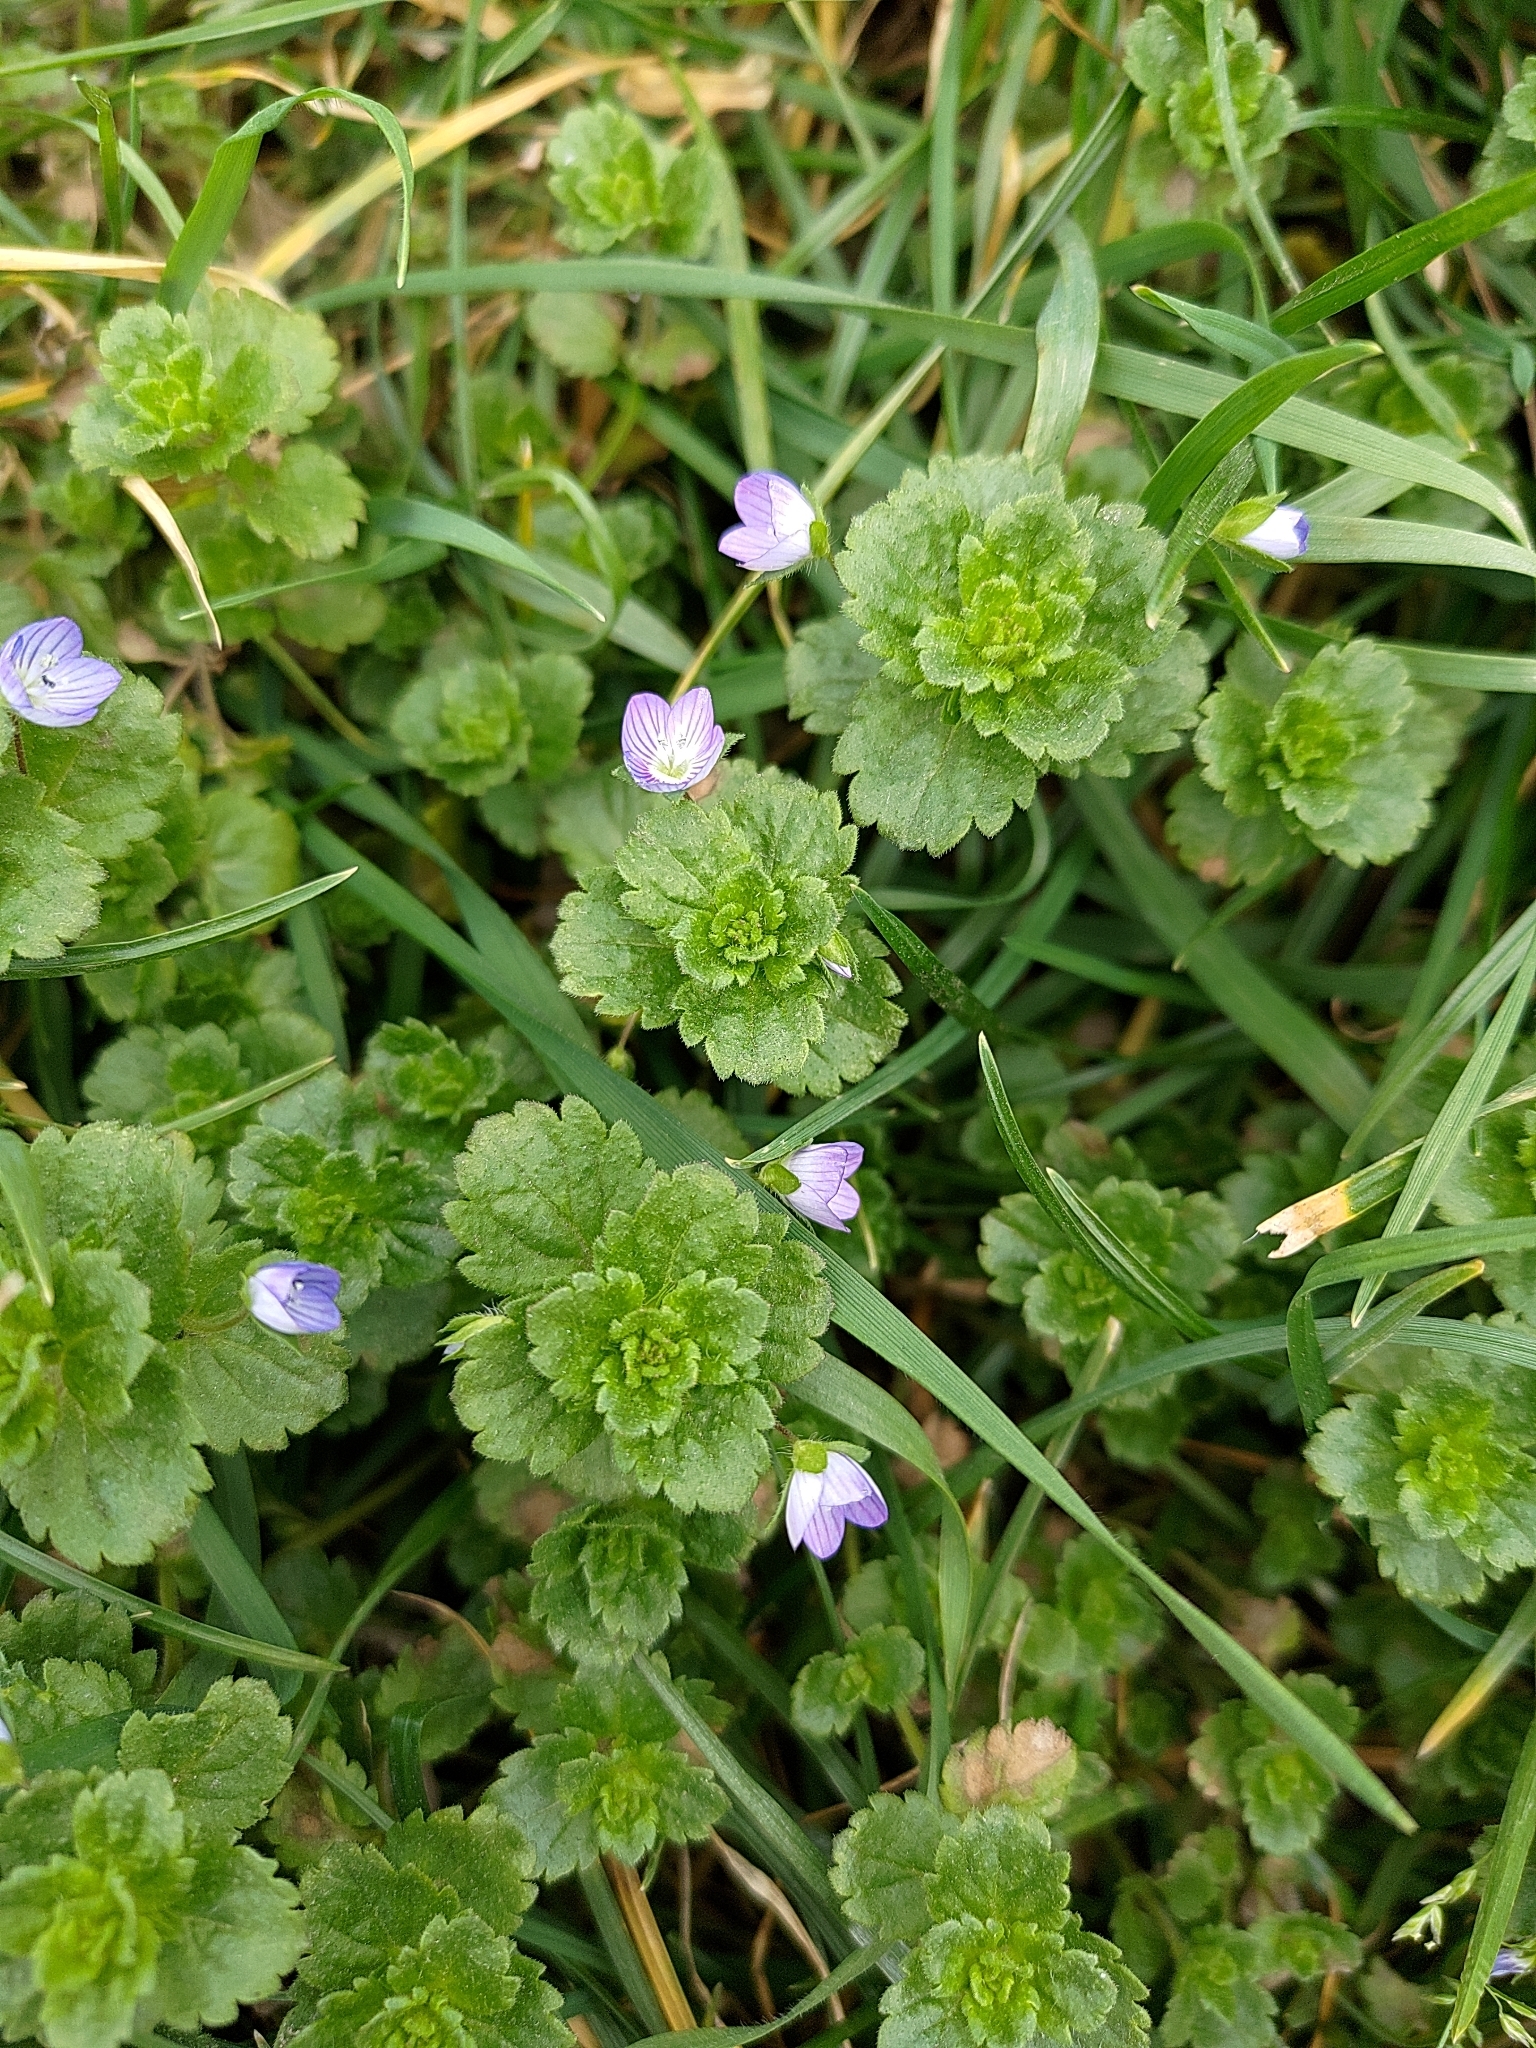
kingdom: Plantae
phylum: Tracheophyta
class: Magnoliopsida
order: Lamiales
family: Plantaginaceae
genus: Veronica
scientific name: Veronica persica
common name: Common field-speedwell
